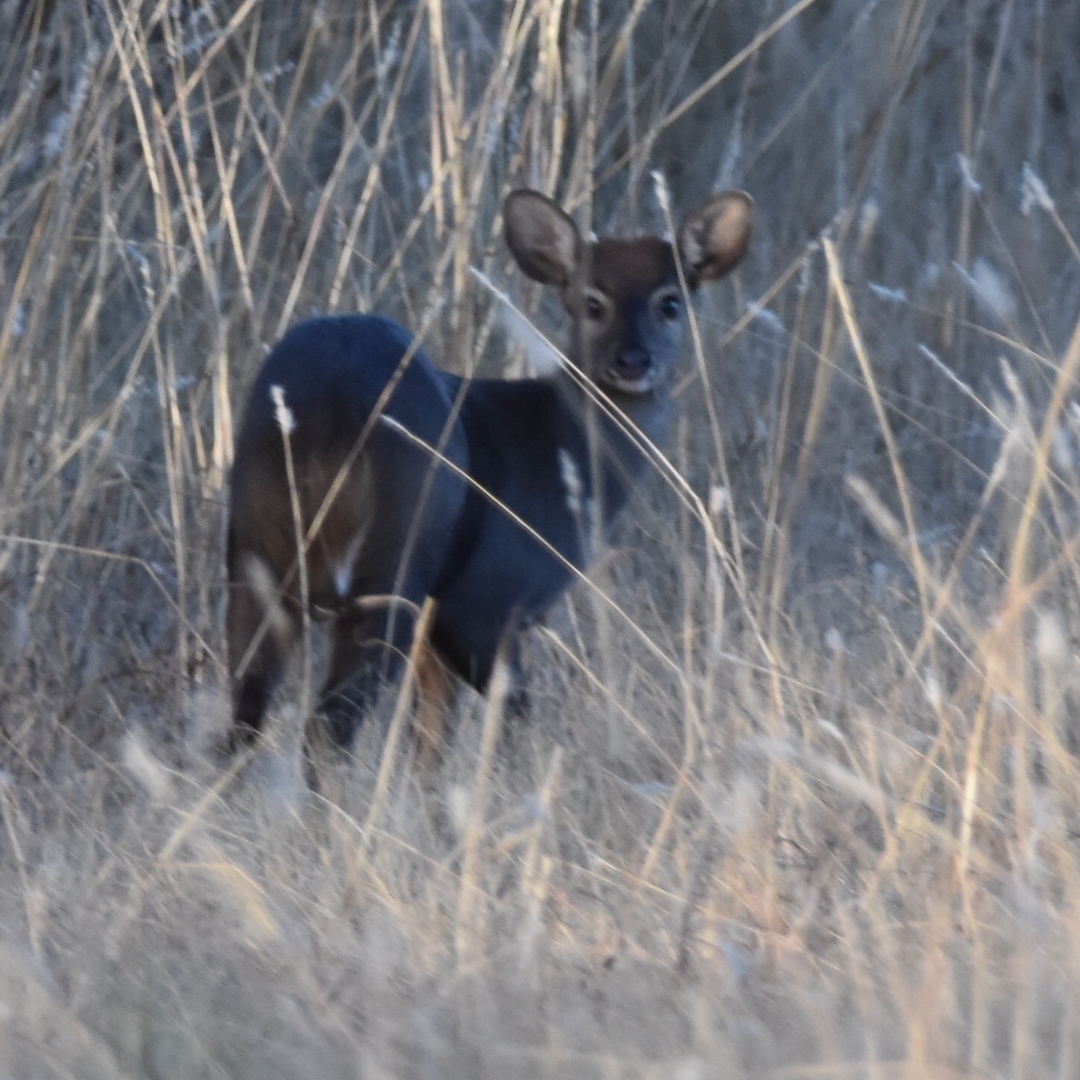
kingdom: Animalia
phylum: Chordata
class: Mammalia
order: Artiodactyla
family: Cervidae
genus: Mazama
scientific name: Mazama gouazoubira
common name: Gray brocket
